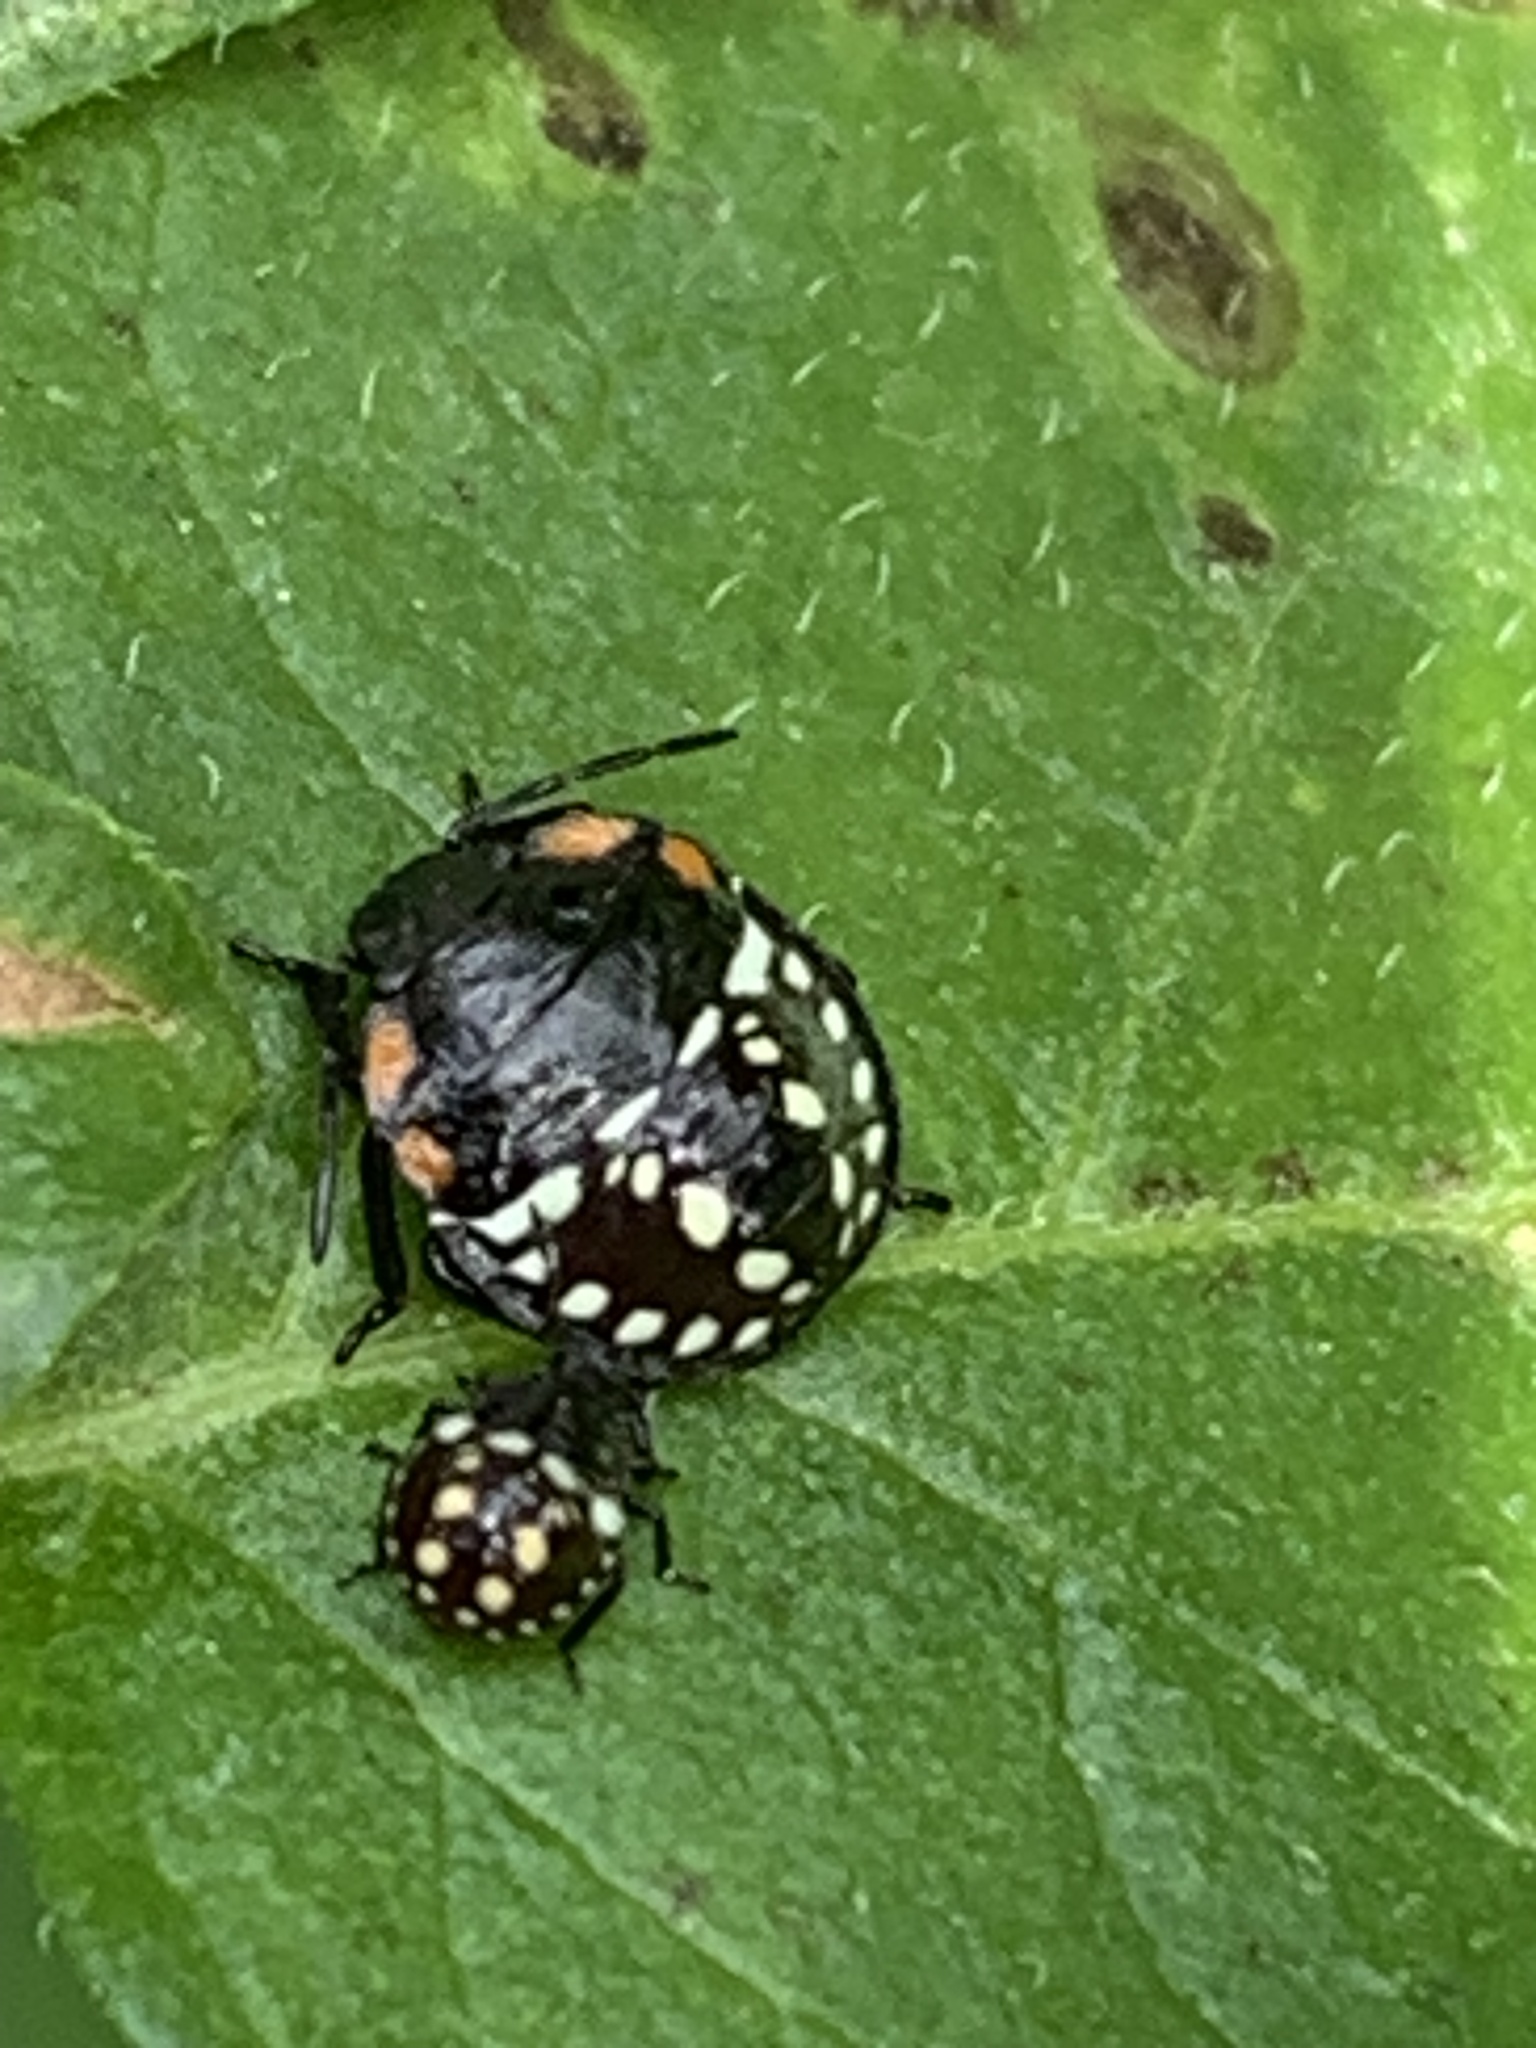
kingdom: Animalia
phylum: Arthropoda
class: Insecta
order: Hemiptera
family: Pentatomidae
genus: Nezara
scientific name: Nezara viridula
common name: Southern green stink bug
